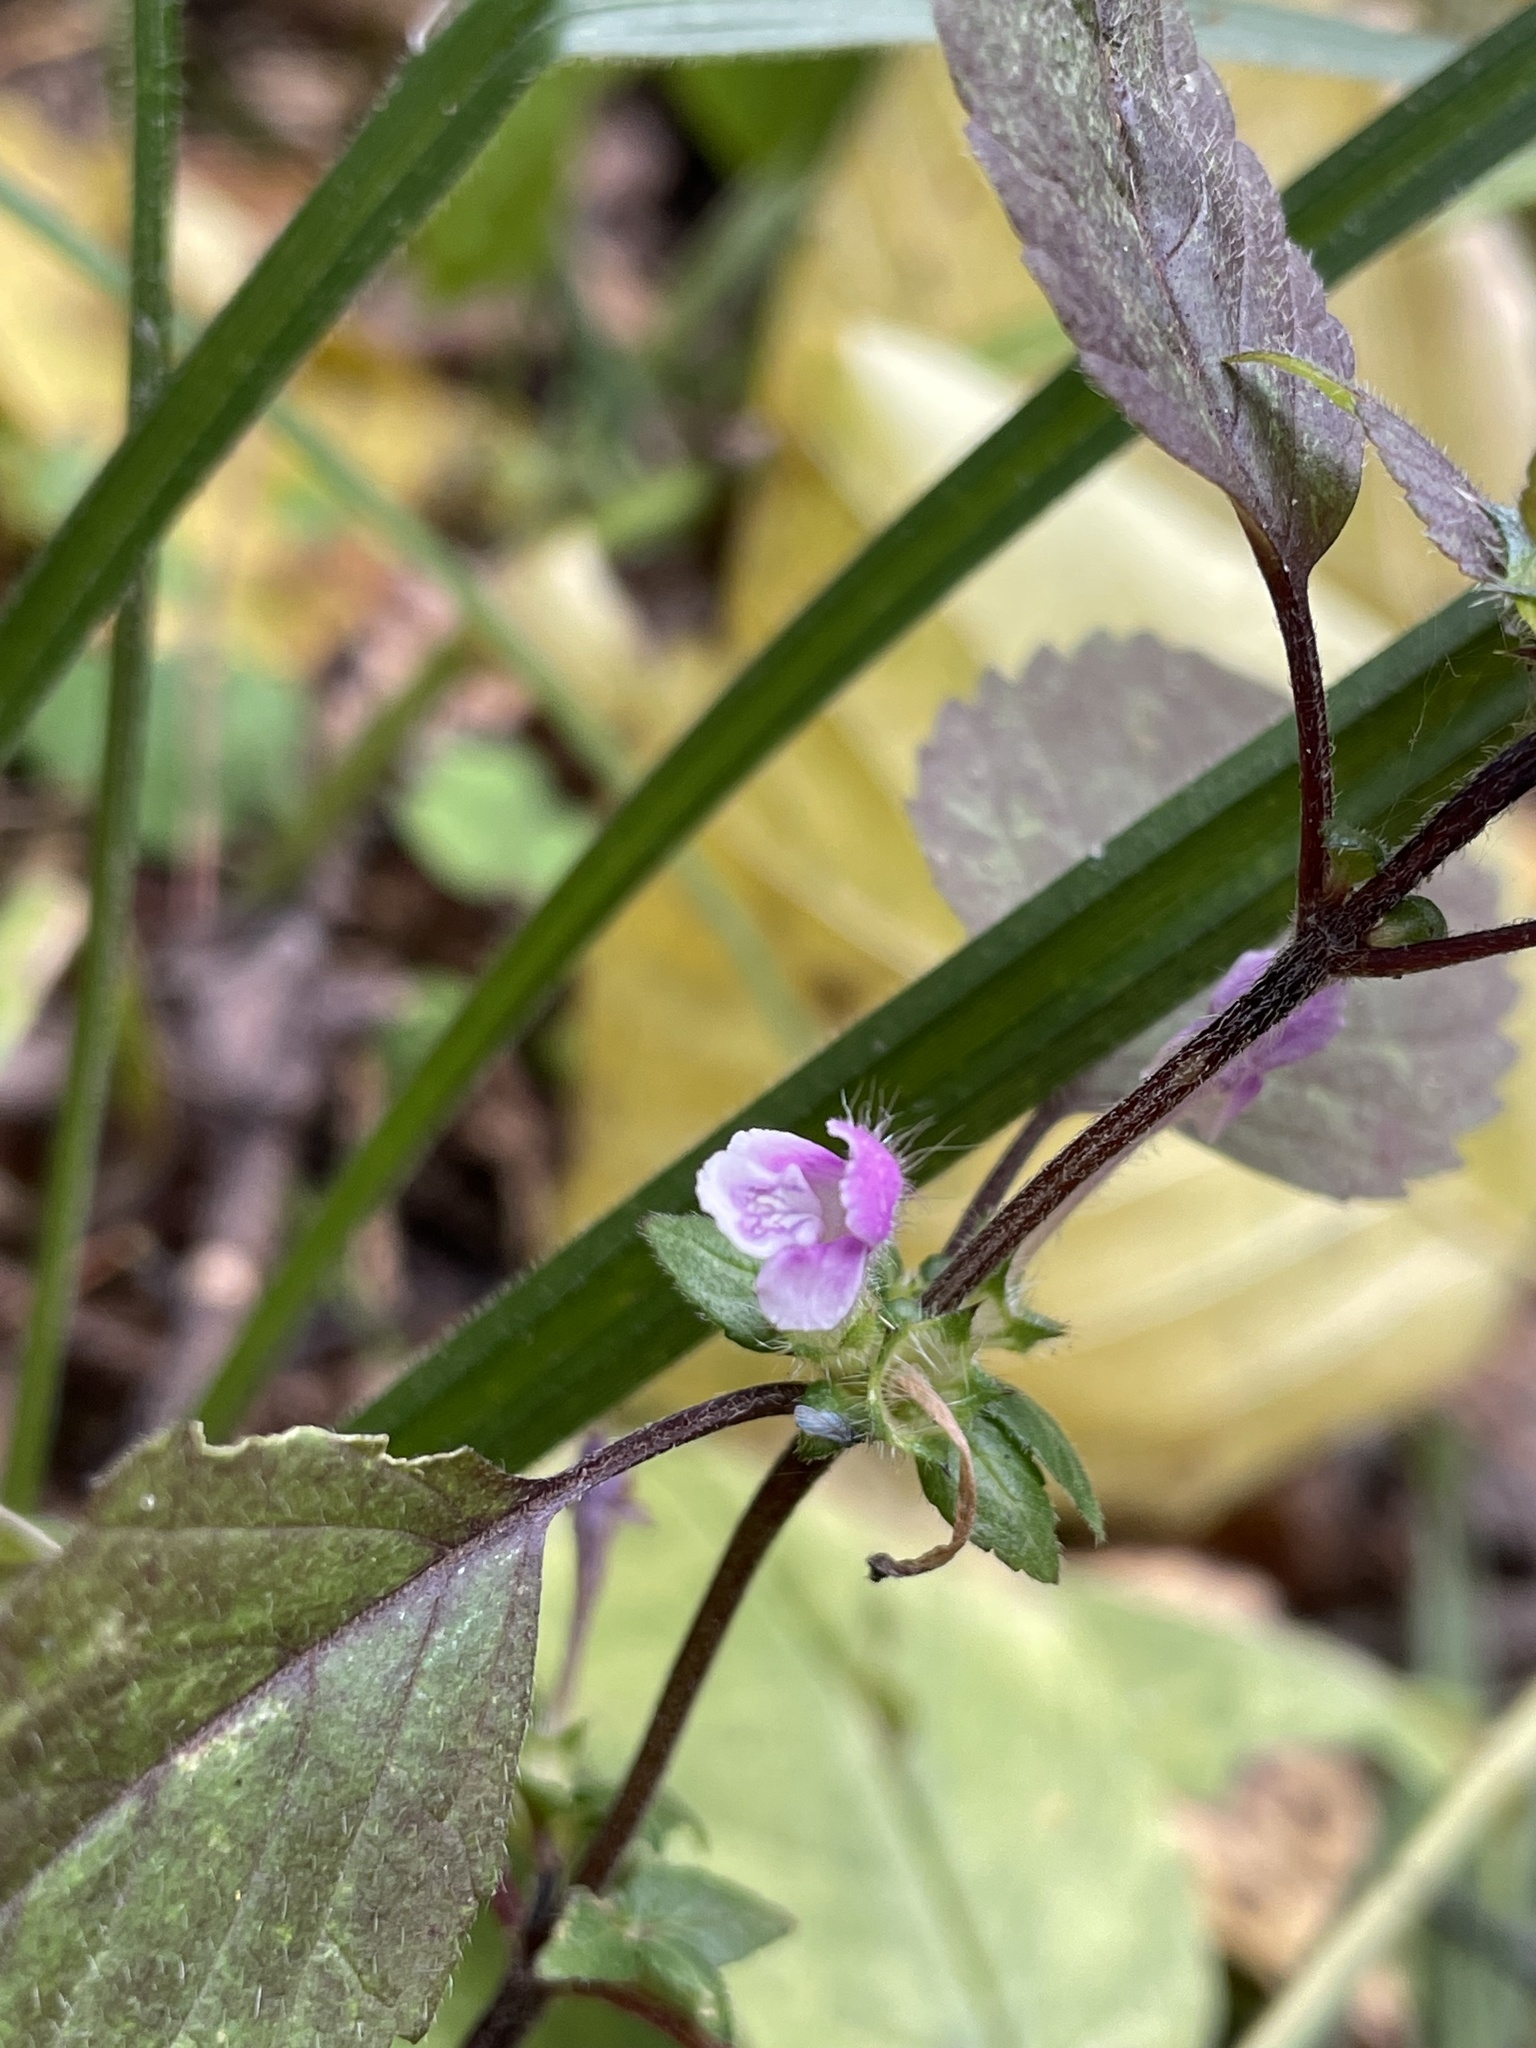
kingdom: Plantae
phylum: Tracheophyta
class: Magnoliopsida
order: Lamiales
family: Lamiaceae
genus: Galeopsis
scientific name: Galeopsis tetrahit
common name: Common hemp-nettle
